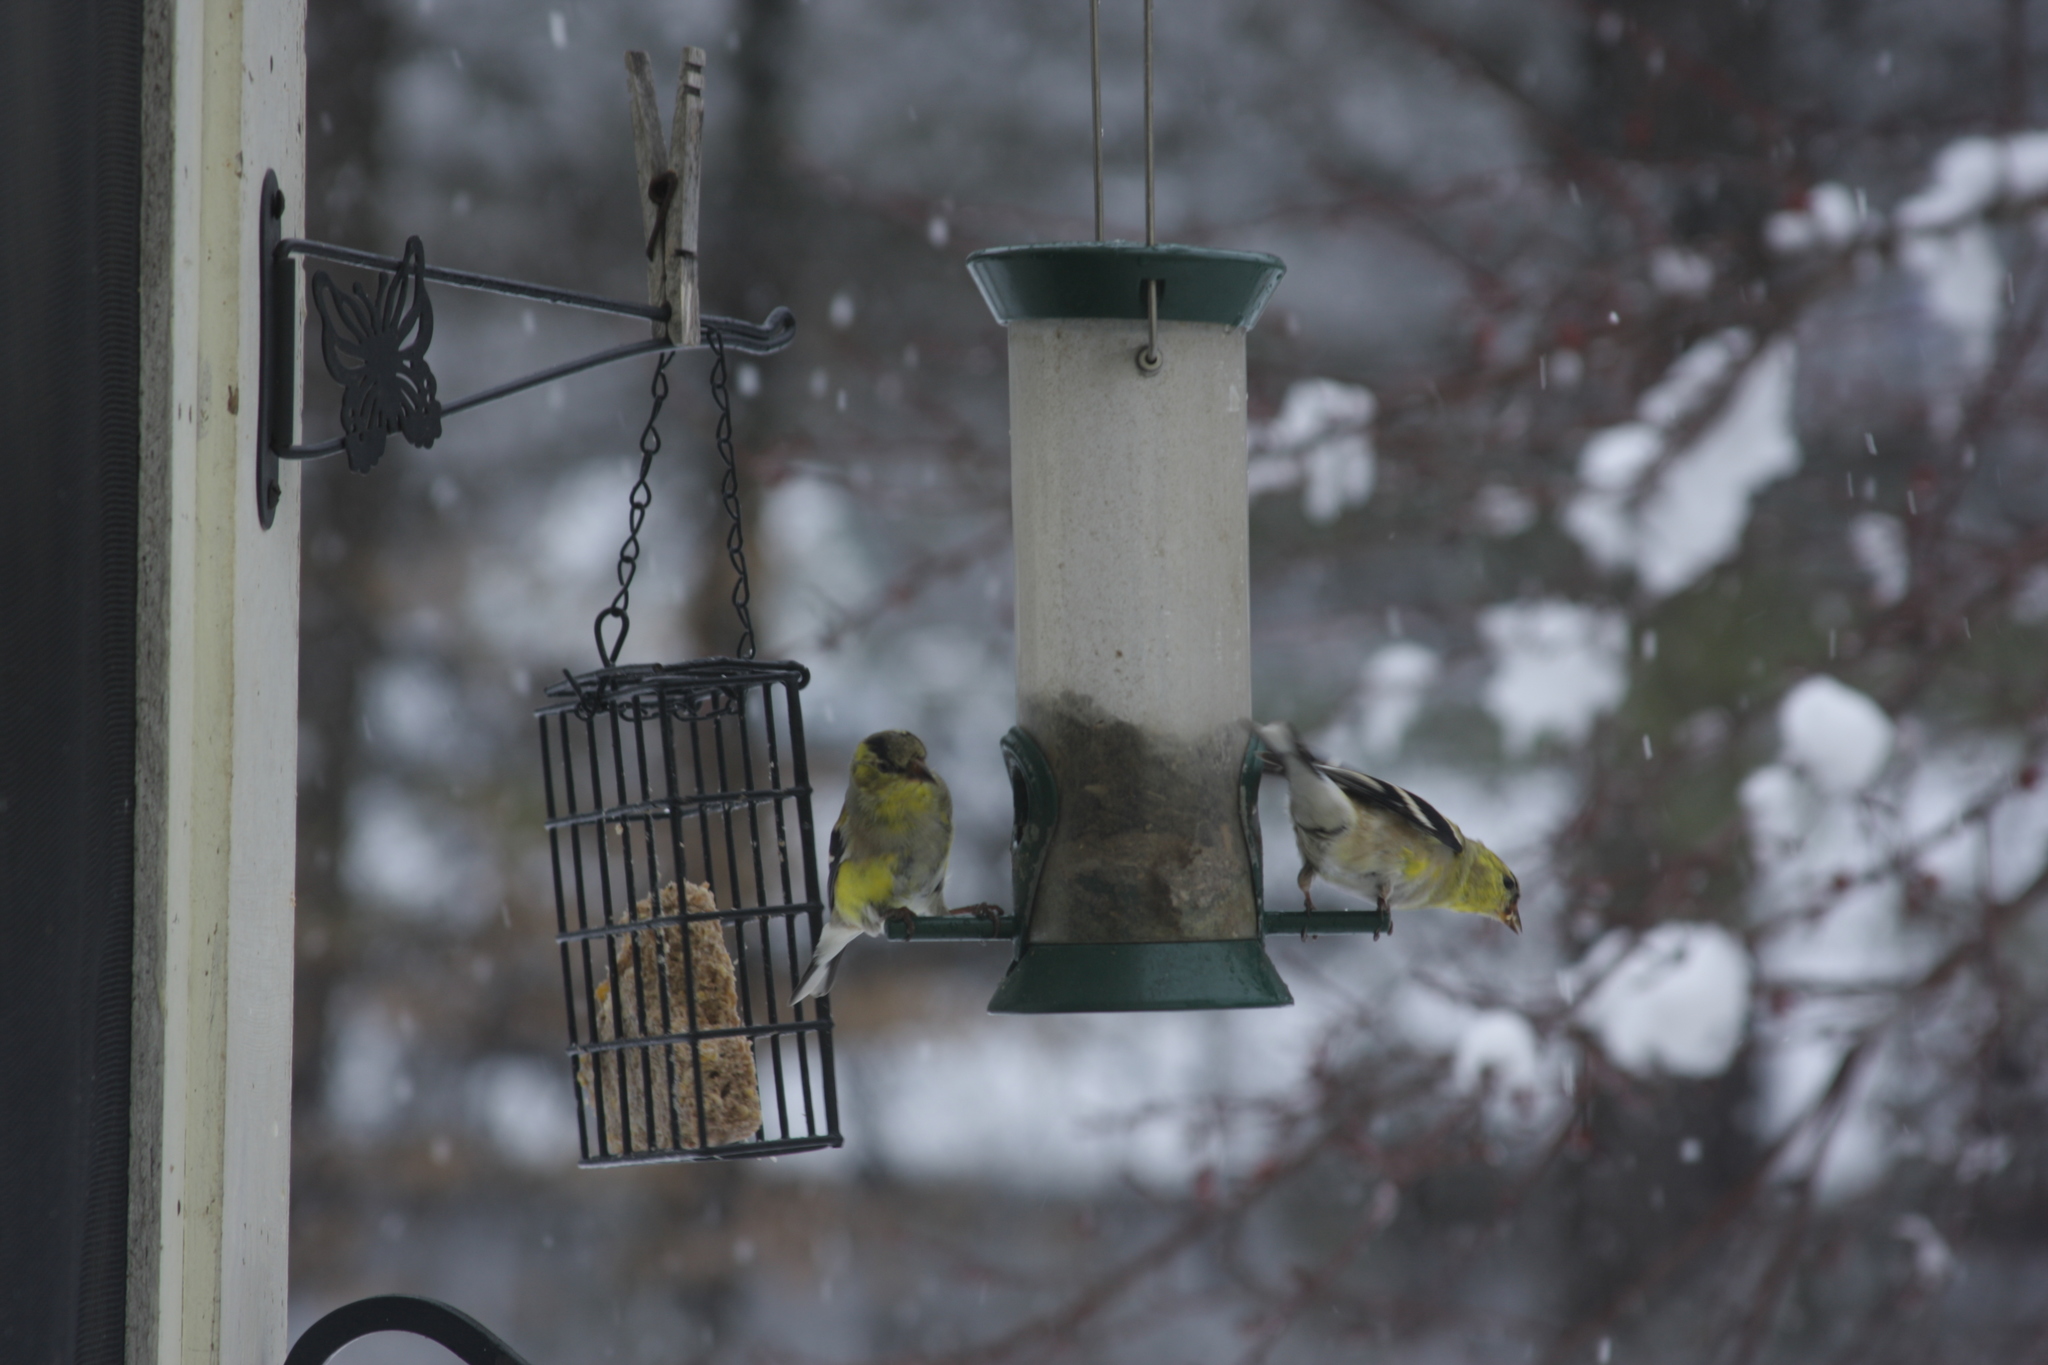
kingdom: Animalia
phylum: Chordata
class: Aves
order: Passeriformes
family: Fringillidae
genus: Spinus
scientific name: Spinus tristis
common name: American goldfinch
